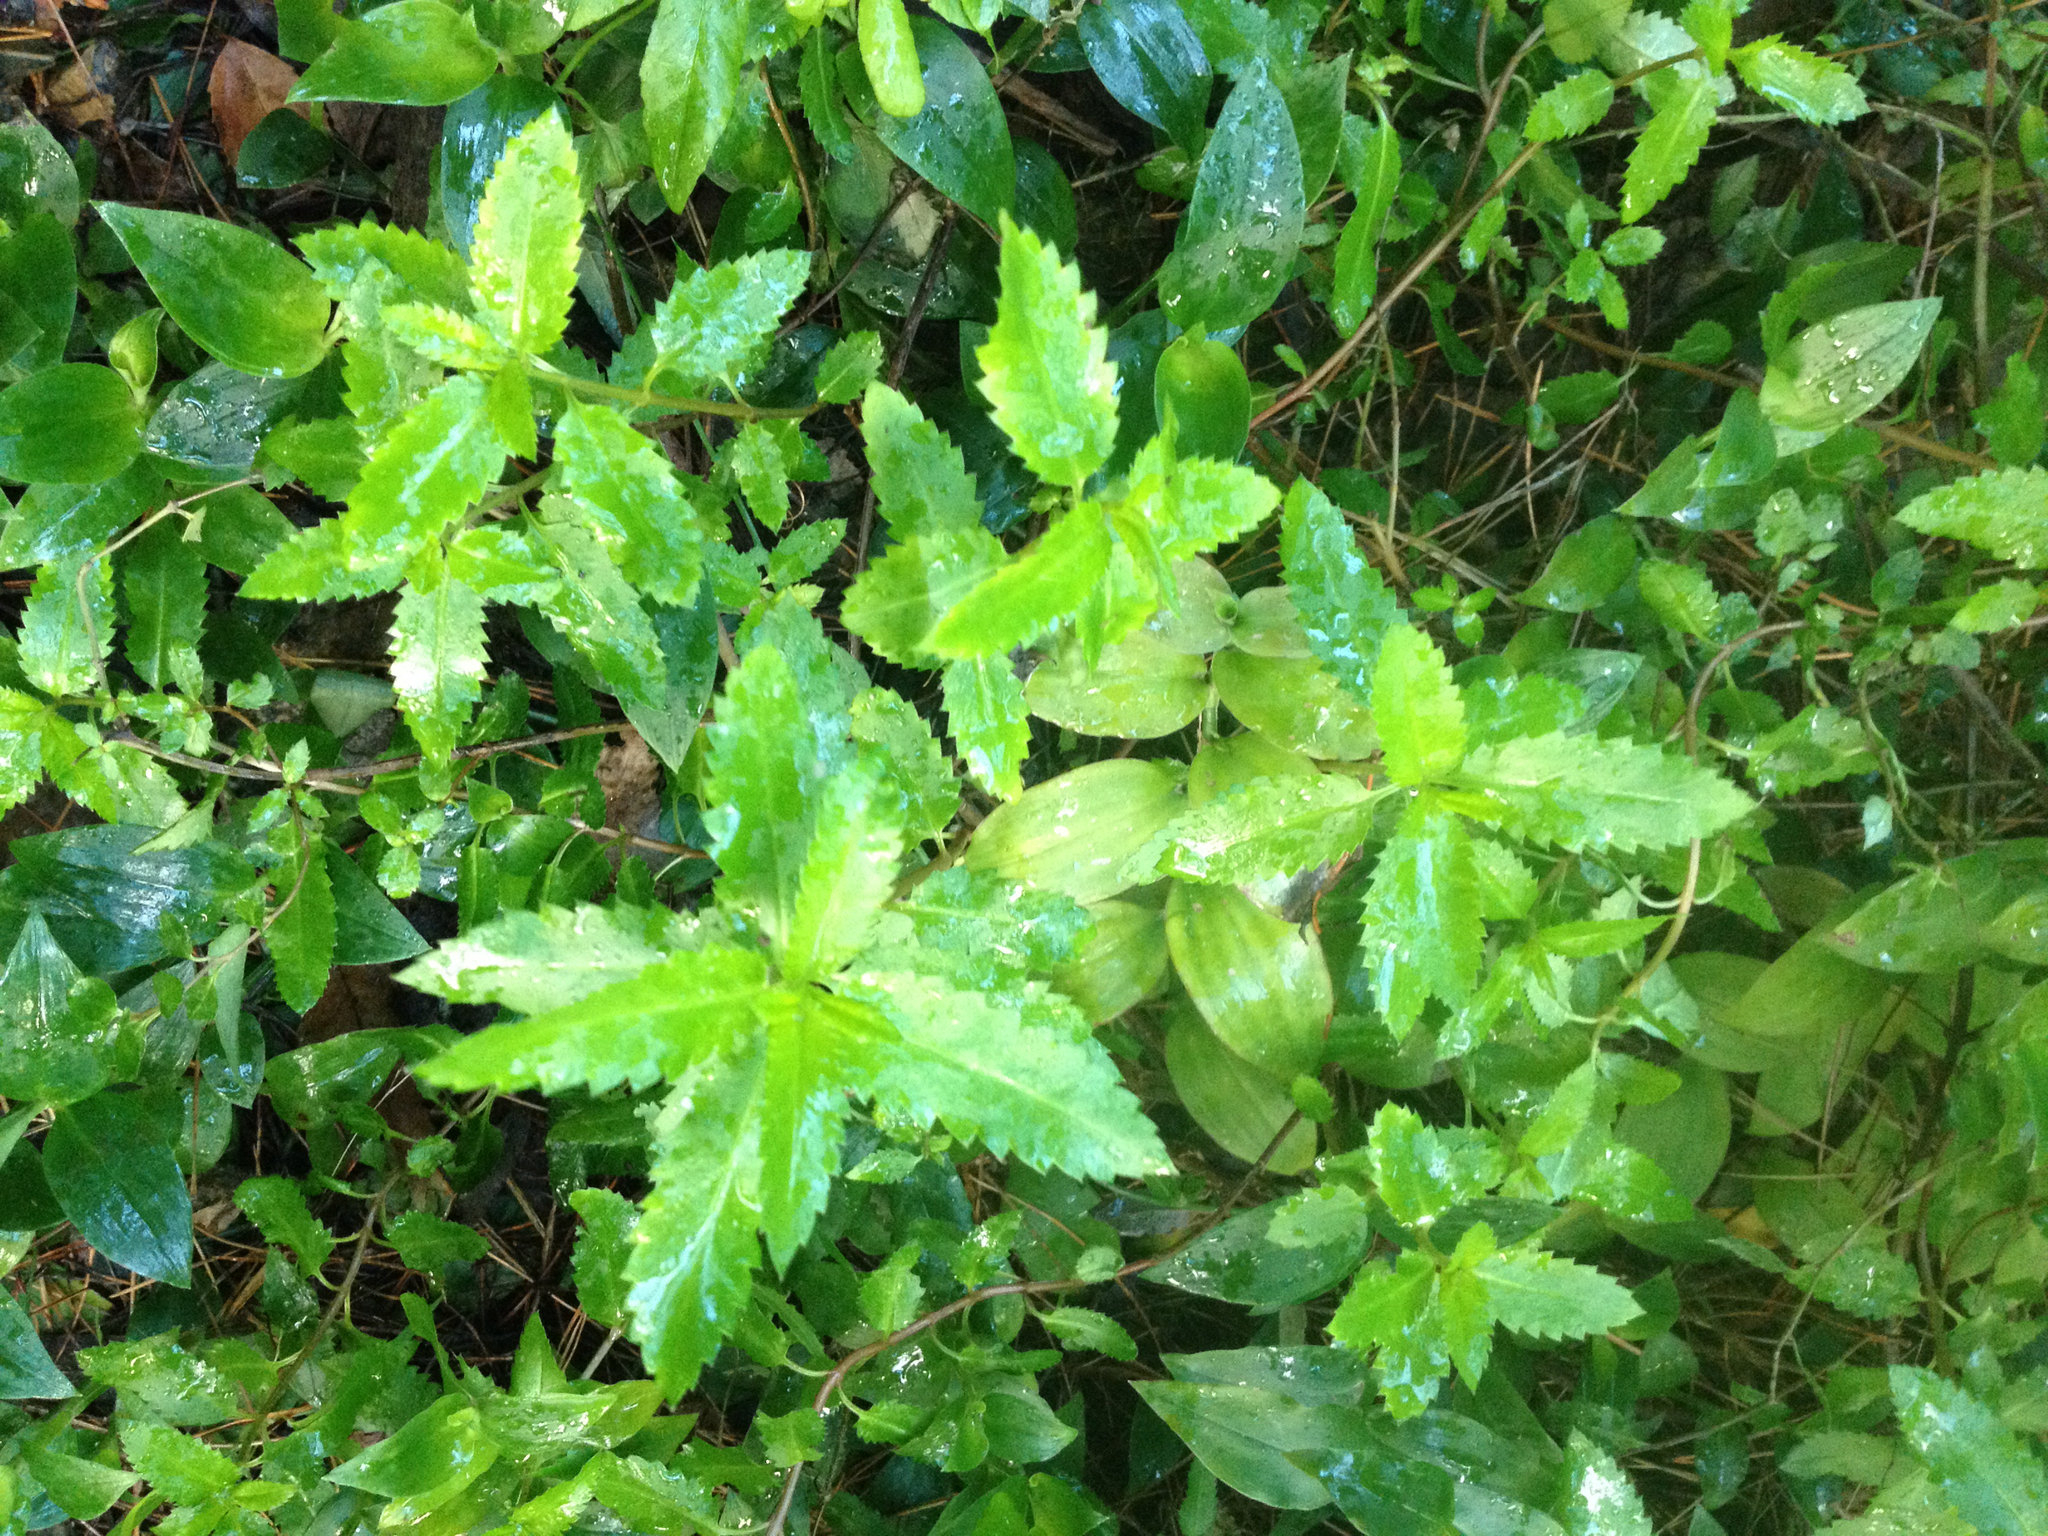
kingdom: Plantae
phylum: Tracheophyta
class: Magnoliopsida
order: Saxifragales
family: Haloragaceae
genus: Haloragis
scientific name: Haloragis erecta
